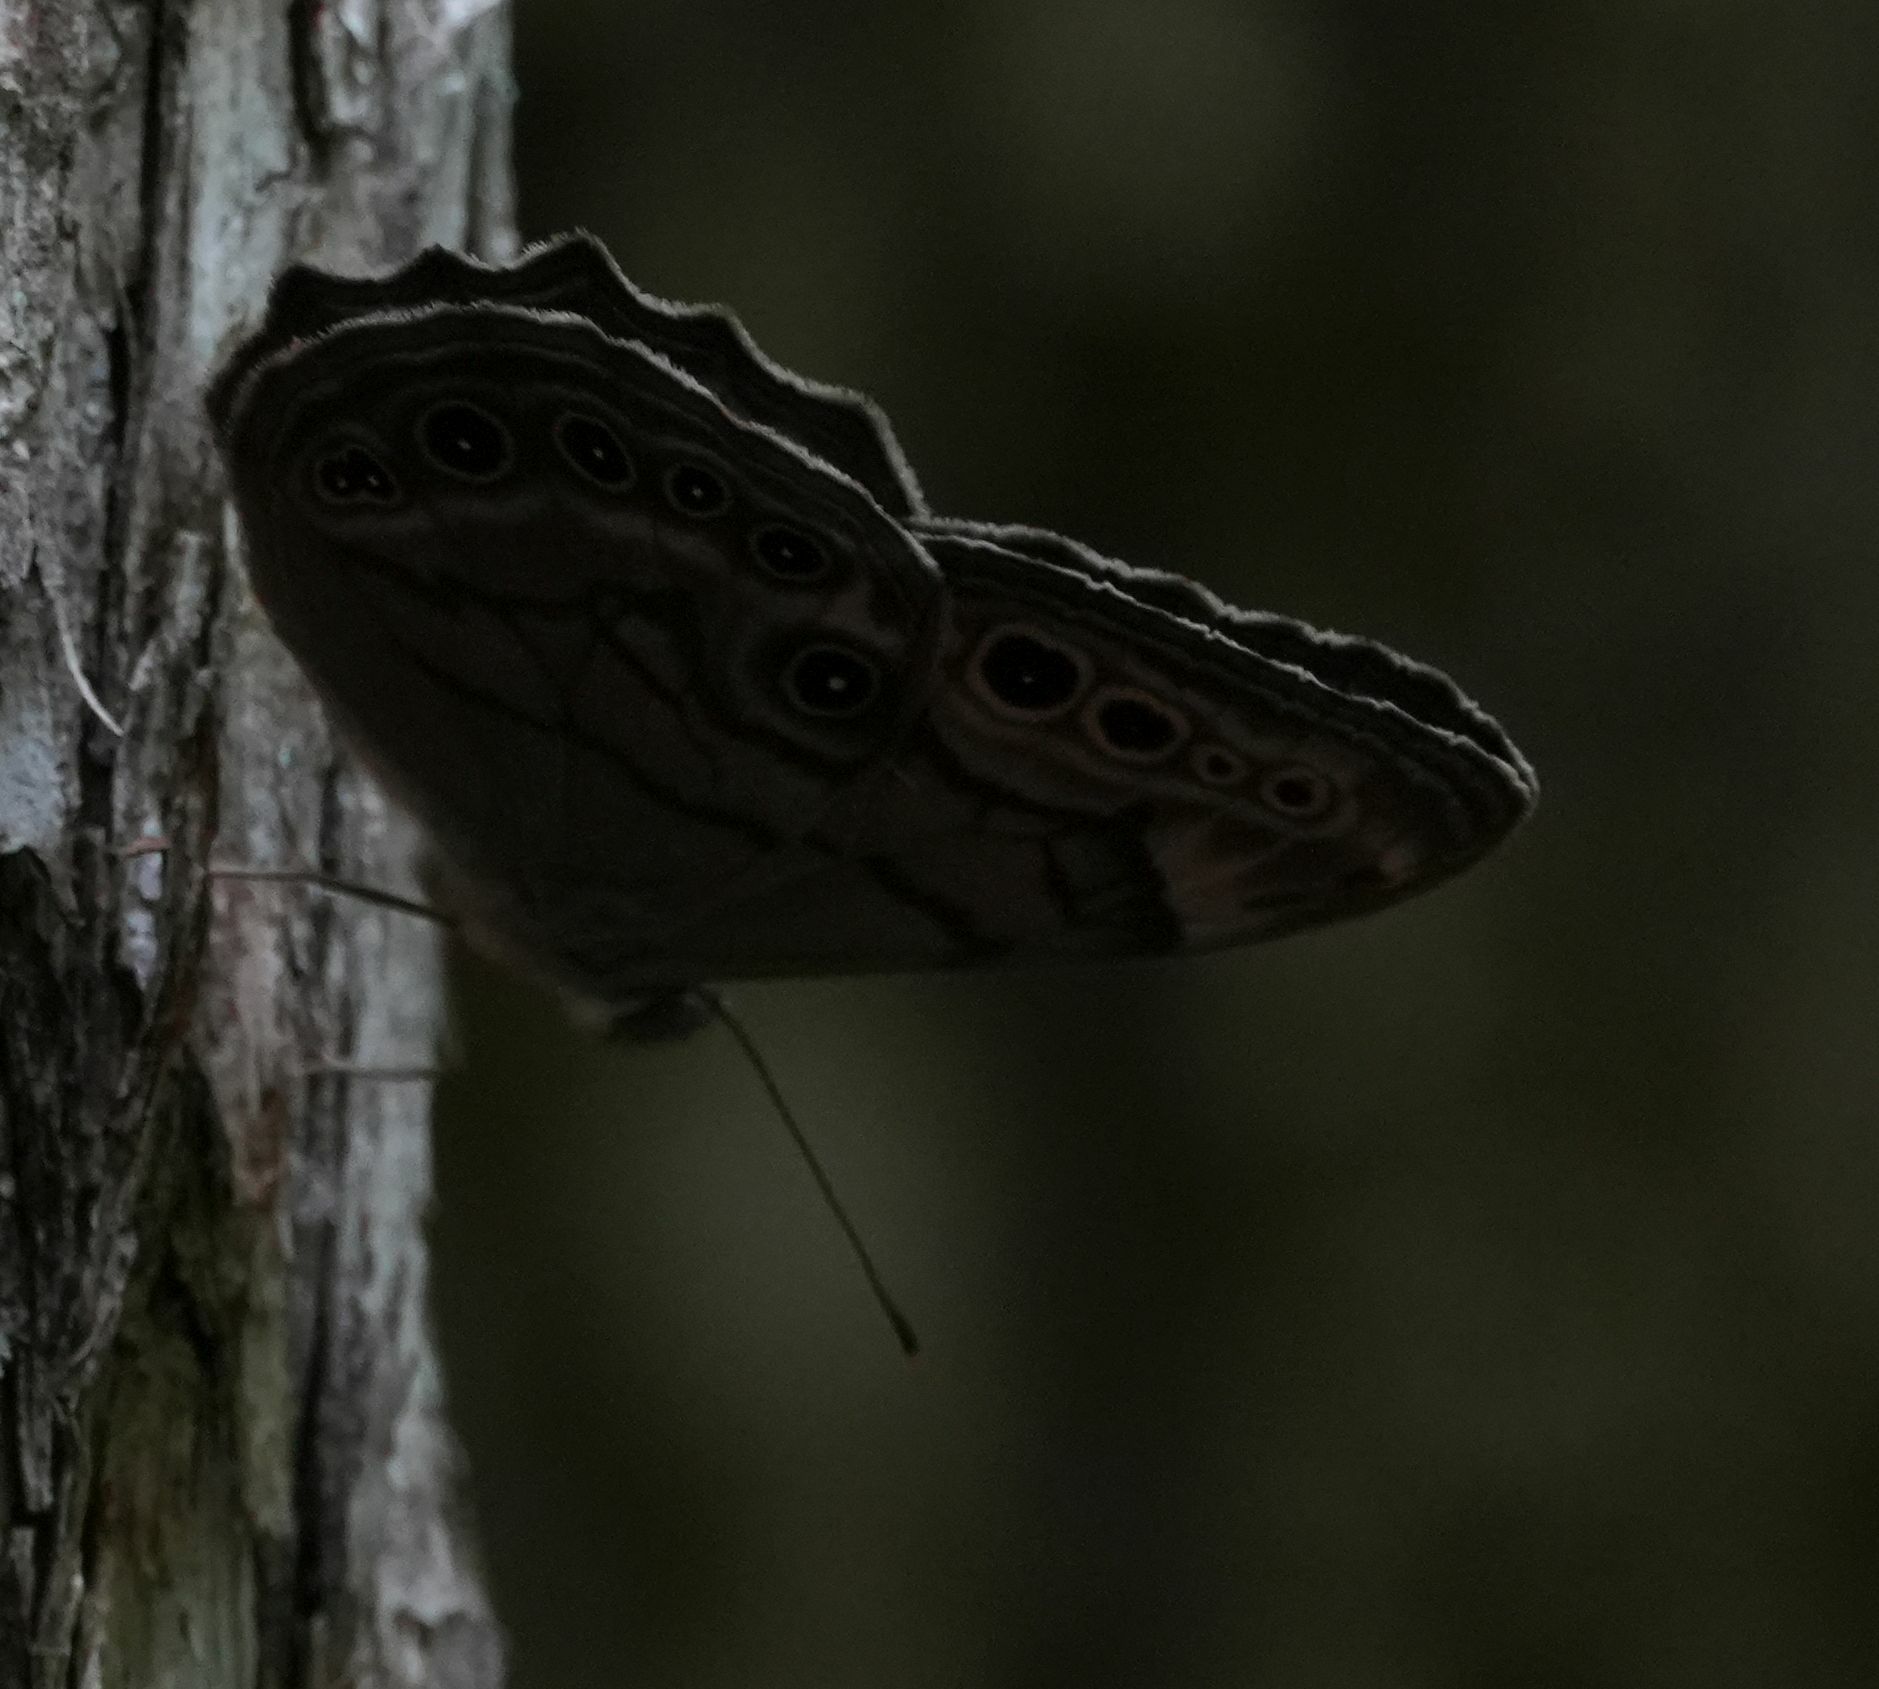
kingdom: Animalia
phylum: Arthropoda
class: Insecta
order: Lepidoptera
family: Nymphalidae
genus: Lethe
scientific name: Lethe anthedon
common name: Northern pearly-eye
